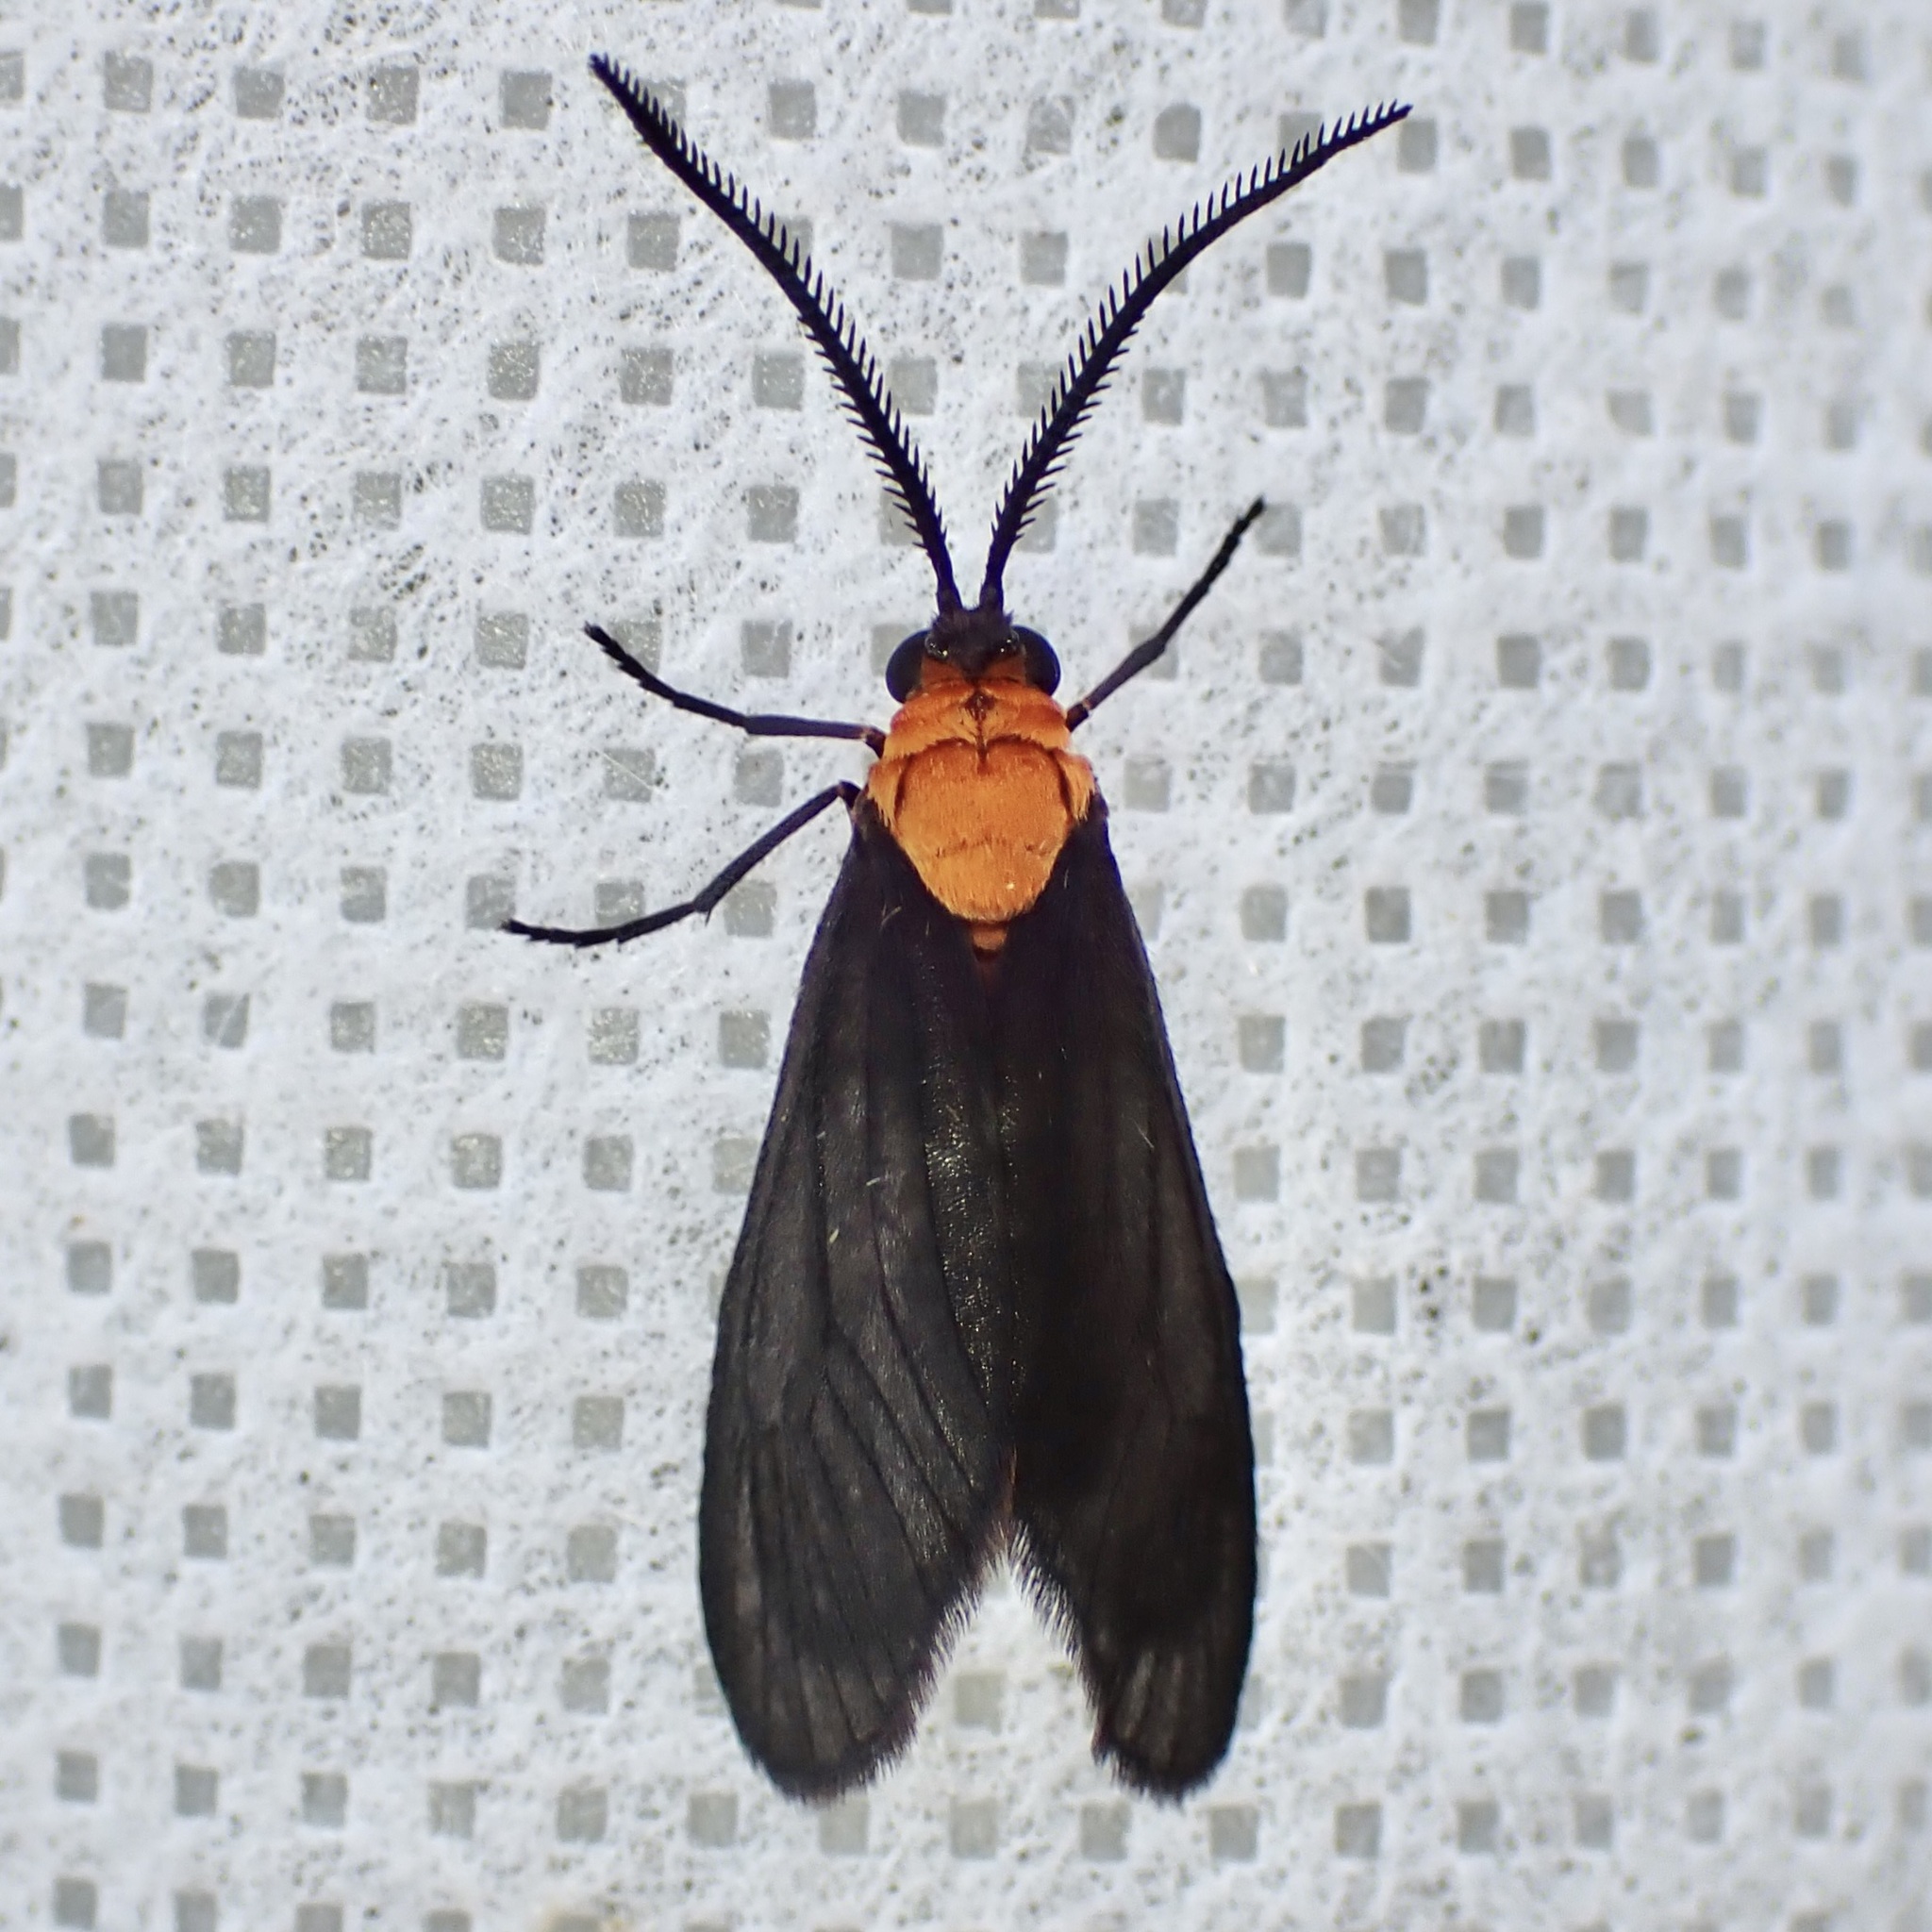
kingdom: Animalia
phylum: Arthropoda
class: Insecta
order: Lepidoptera
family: Zygaenidae
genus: Neoilliberis
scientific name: Neoilliberis fusca
